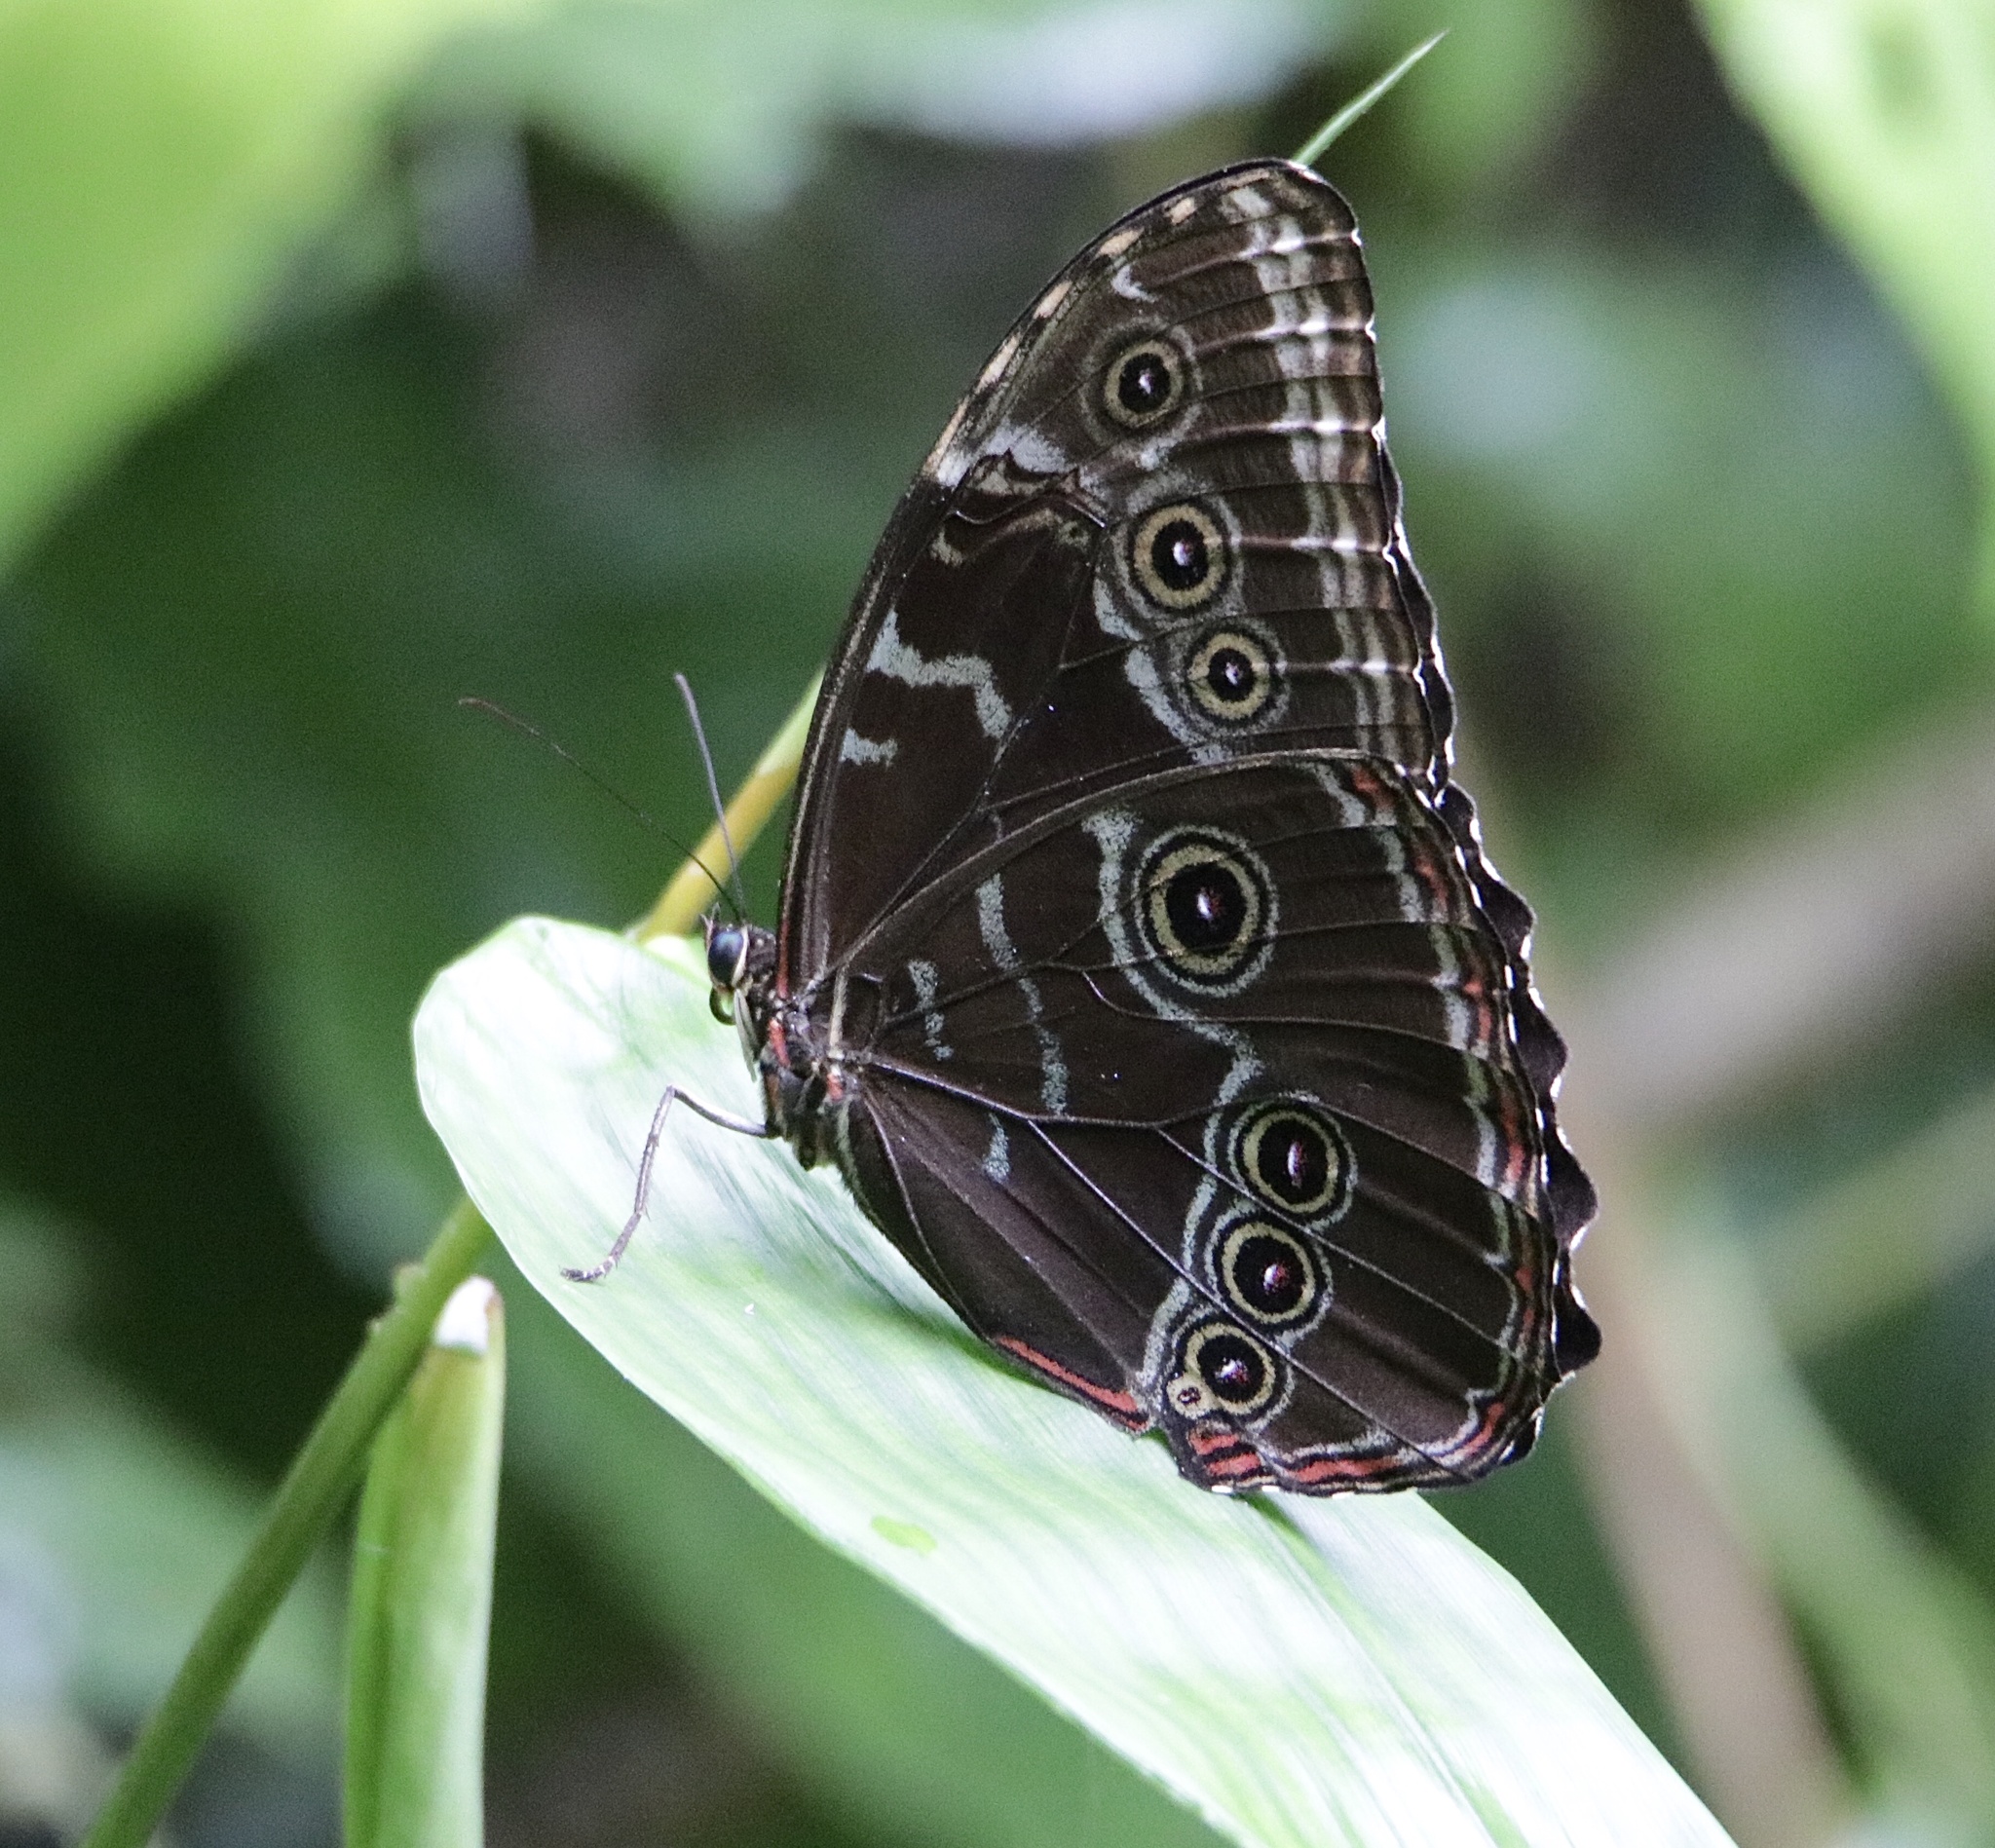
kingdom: Animalia
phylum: Arthropoda
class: Insecta
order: Lepidoptera
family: Nymphalidae
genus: Morpho
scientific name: Morpho helenor
